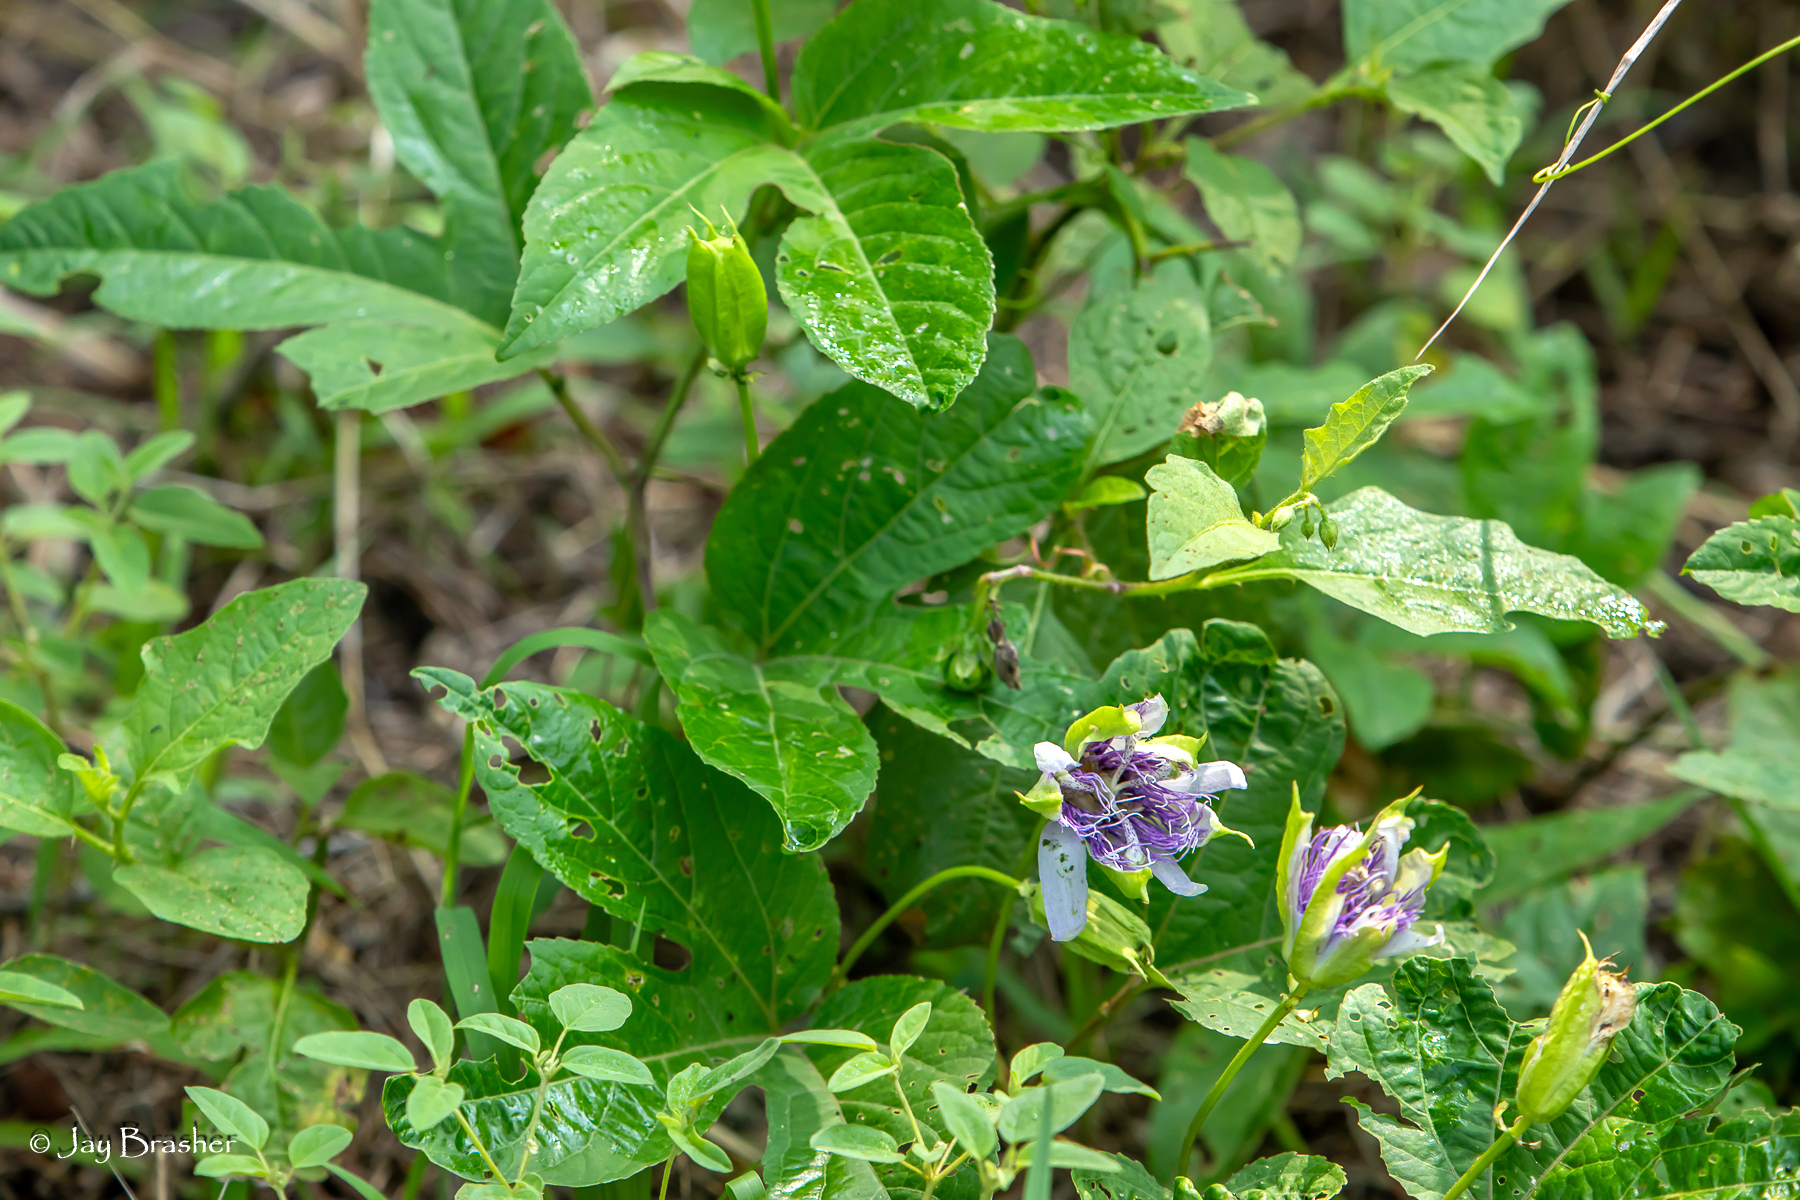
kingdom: Plantae
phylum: Tracheophyta
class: Magnoliopsida
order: Malpighiales
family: Passifloraceae
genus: Passiflora
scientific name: Passiflora incarnata
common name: Apricot-vine
